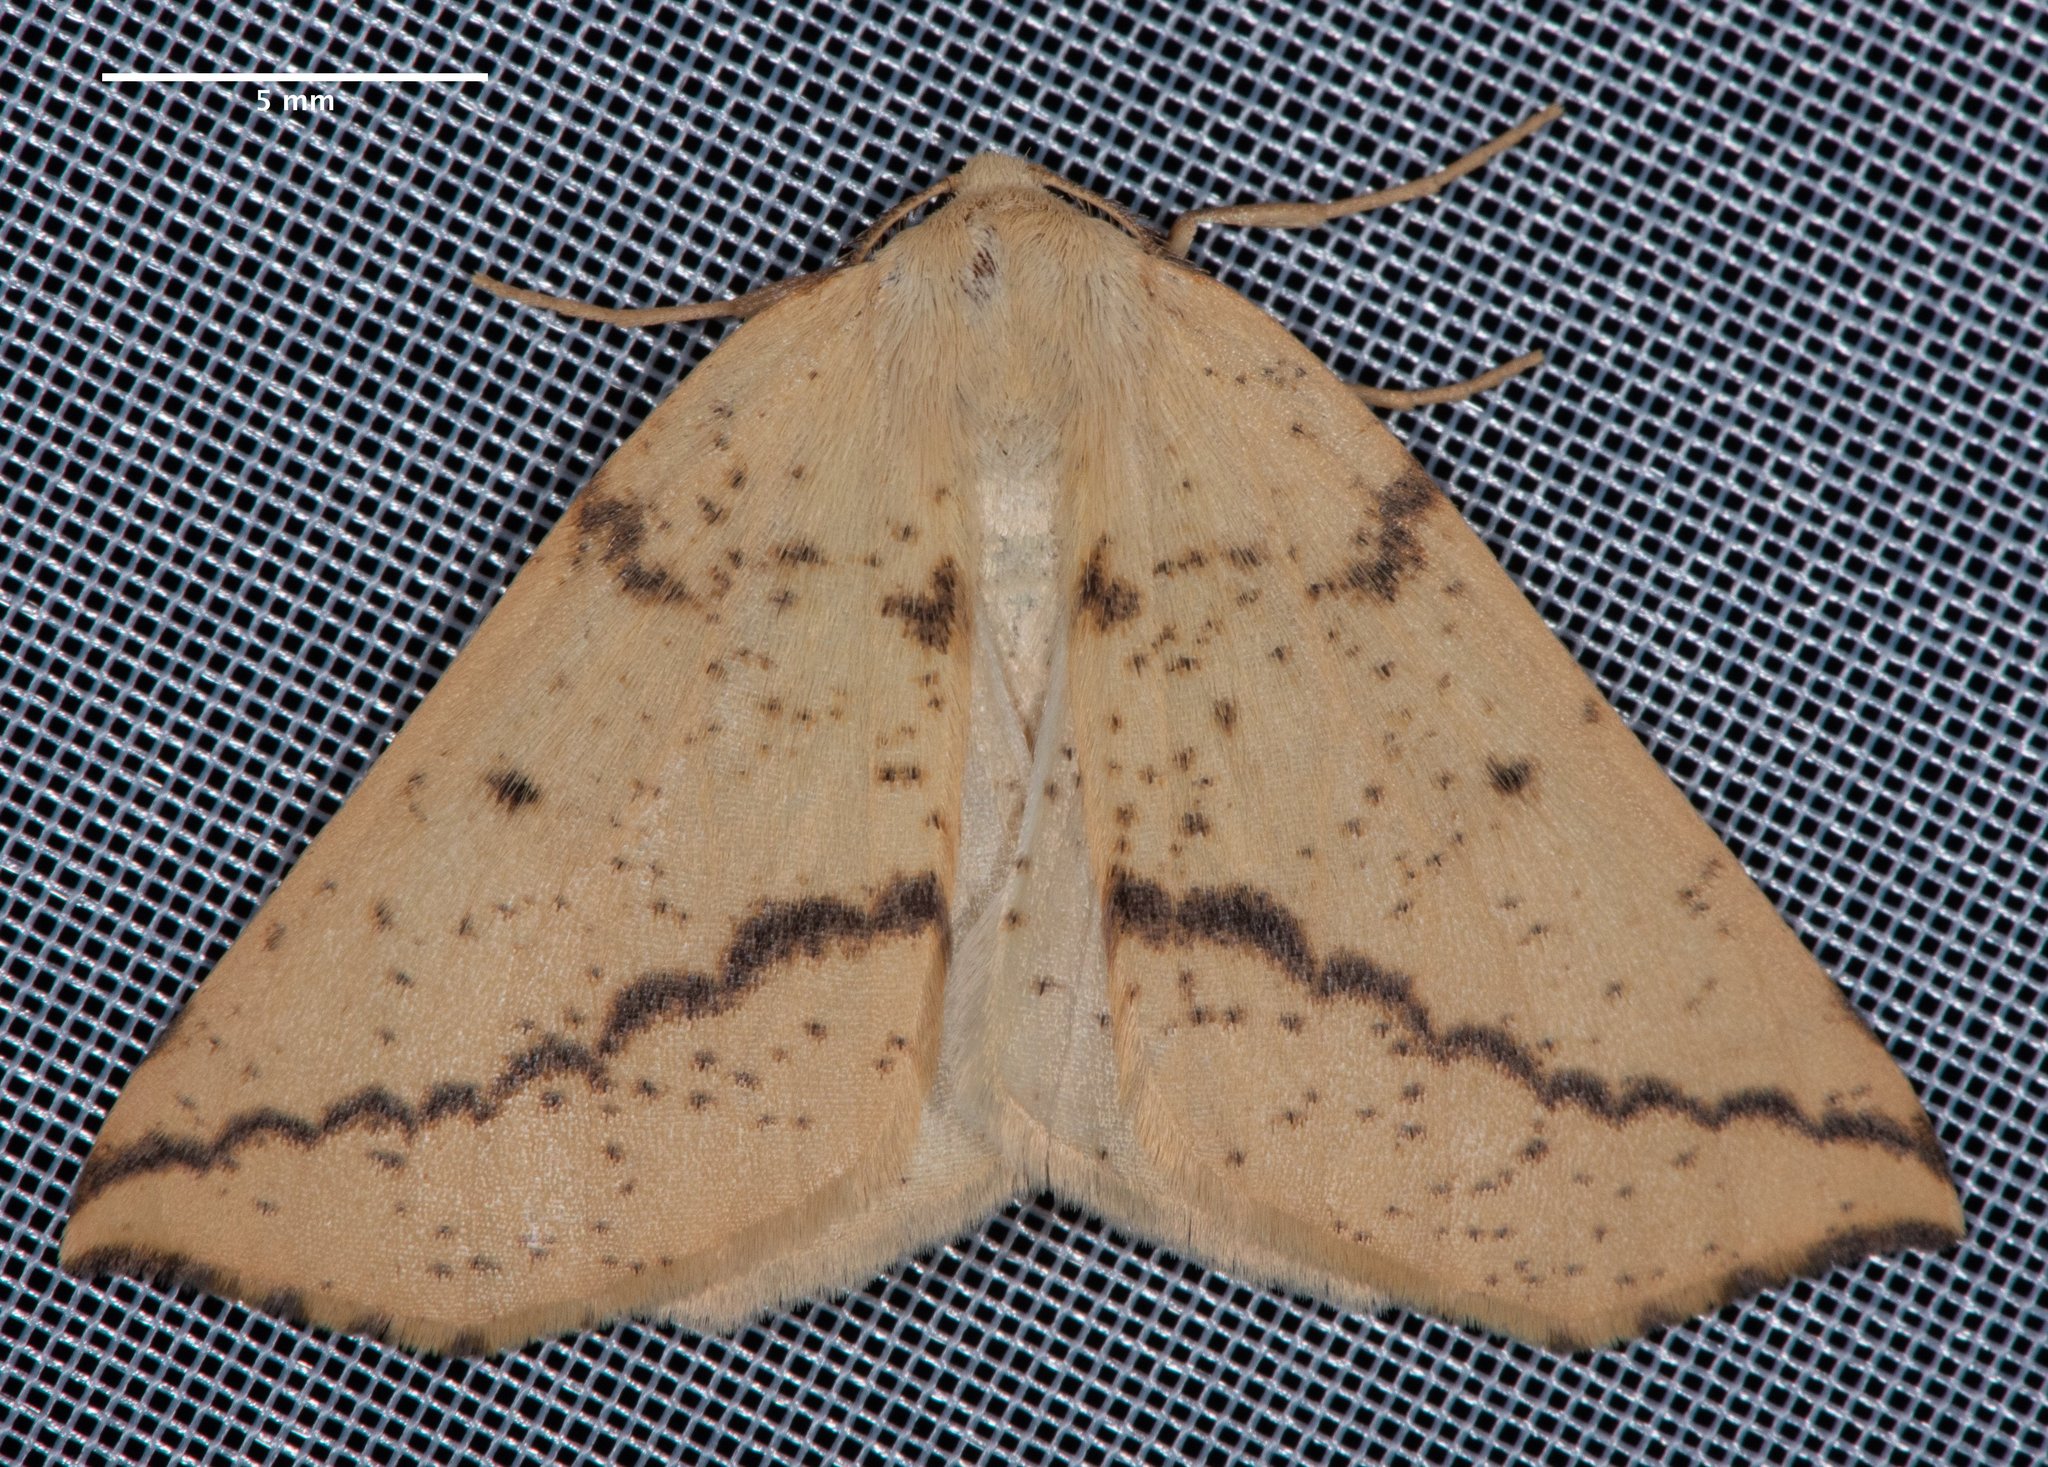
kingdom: Animalia
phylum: Arthropoda
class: Insecta
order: Lepidoptera
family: Geometridae
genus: Neoterpes
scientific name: Neoterpes edwardsata
